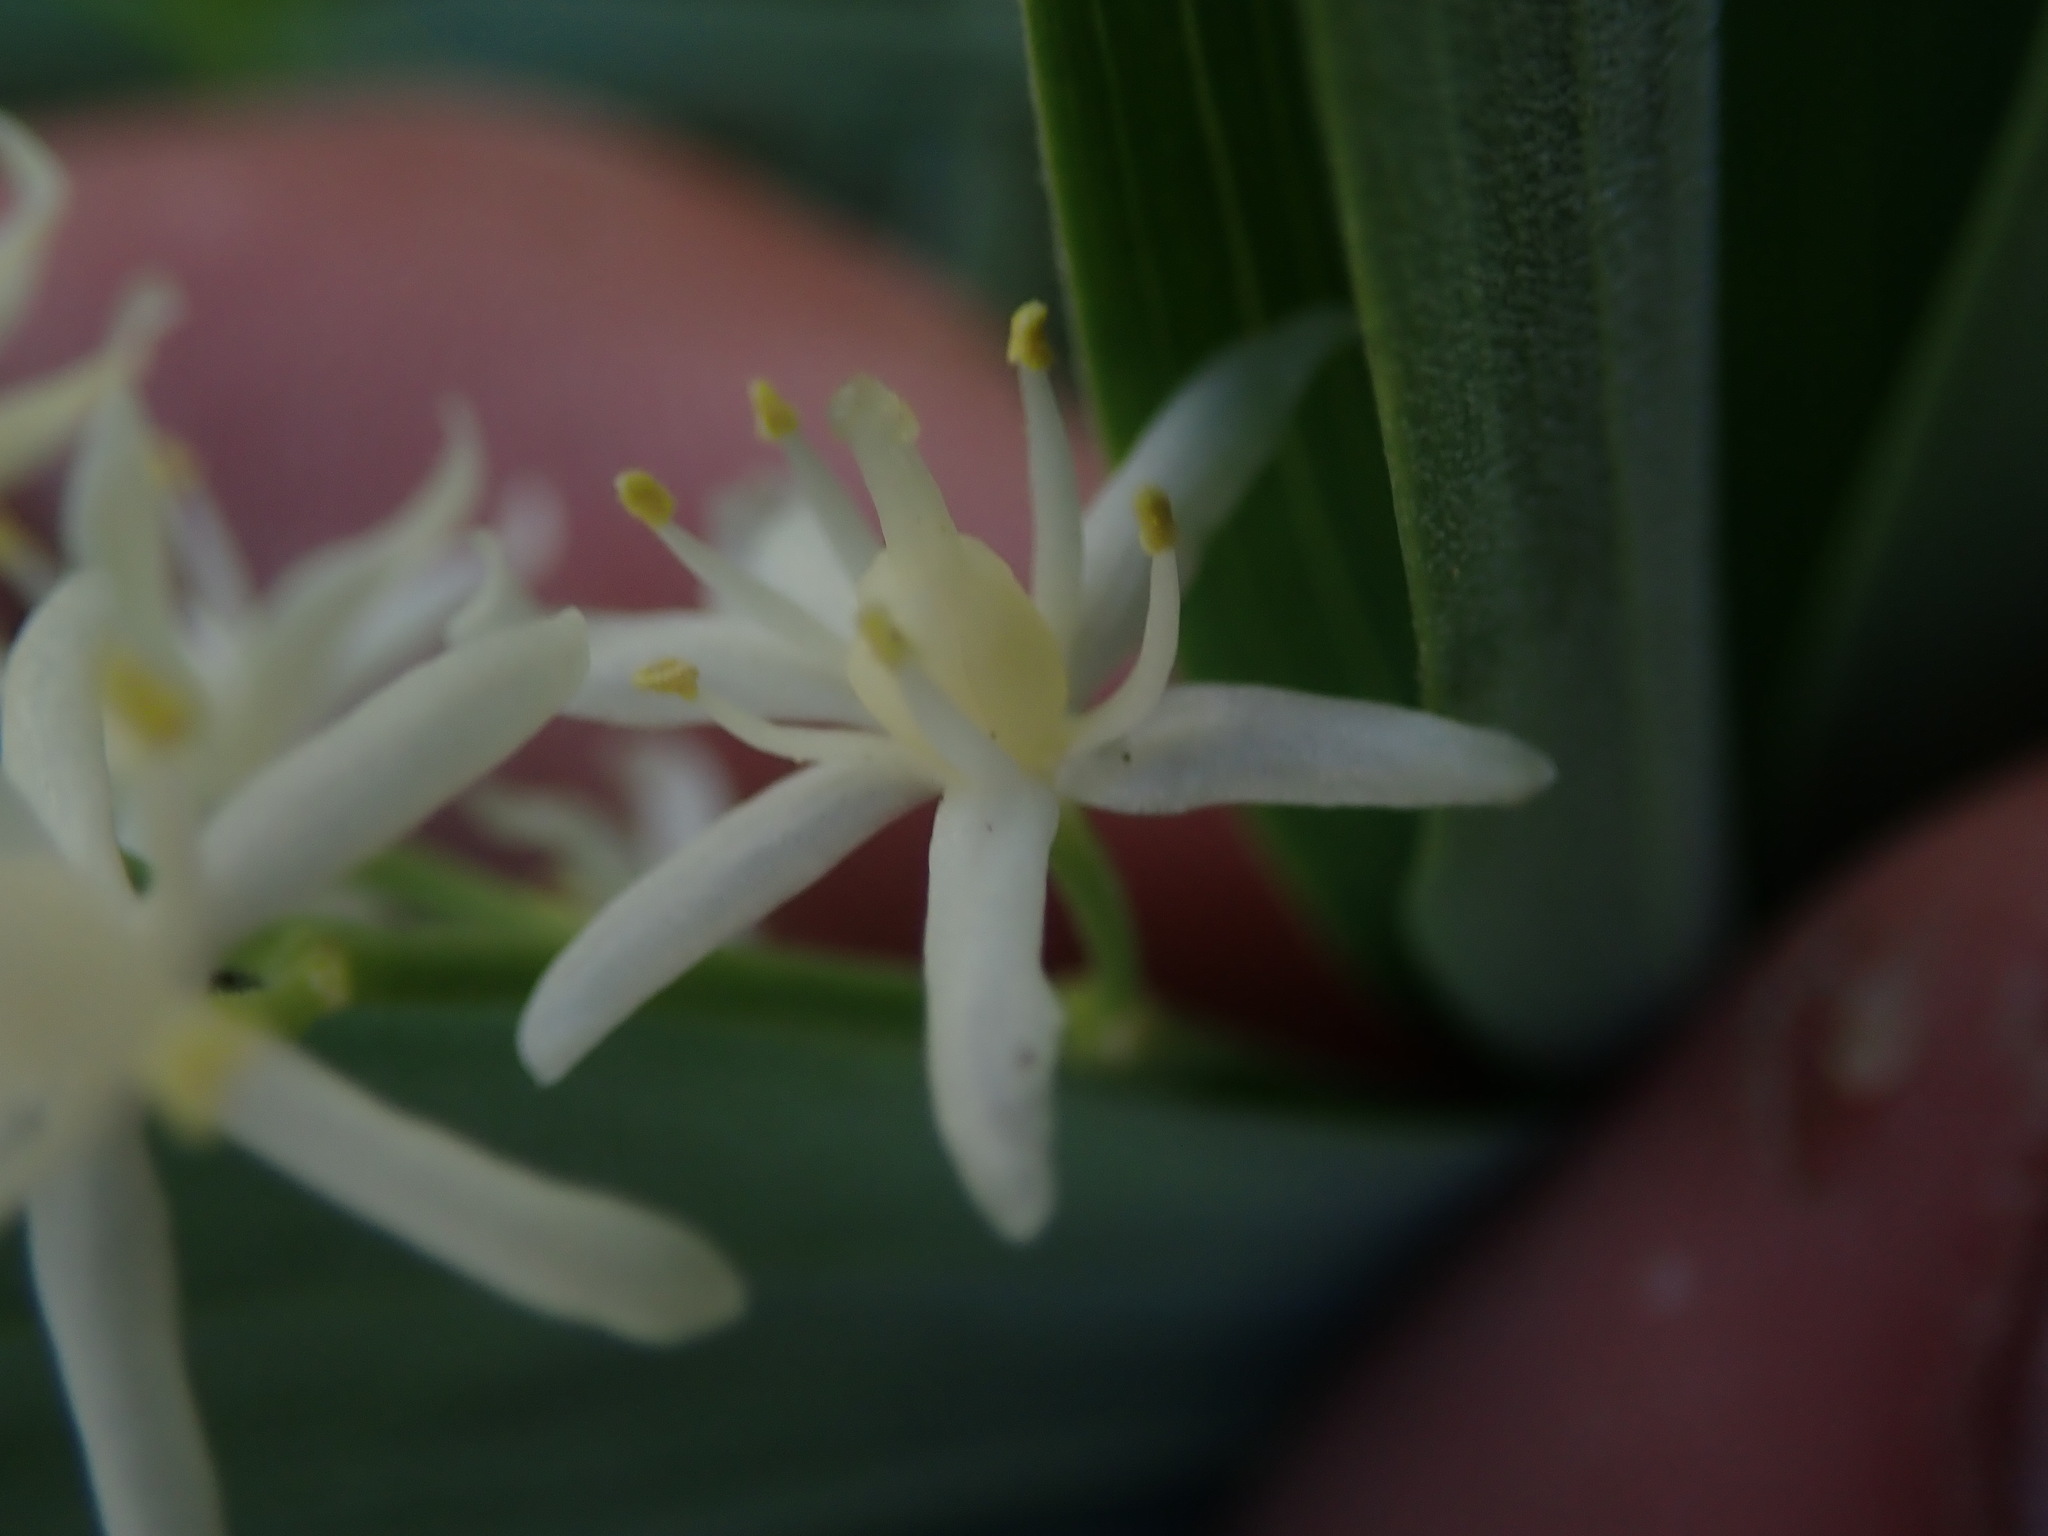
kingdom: Plantae
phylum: Tracheophyta
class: Liliopsida
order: Asparagales
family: Asparagaceae
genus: Maianthemum
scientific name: Maianthemum stellatum
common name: Little false solomon's seal
